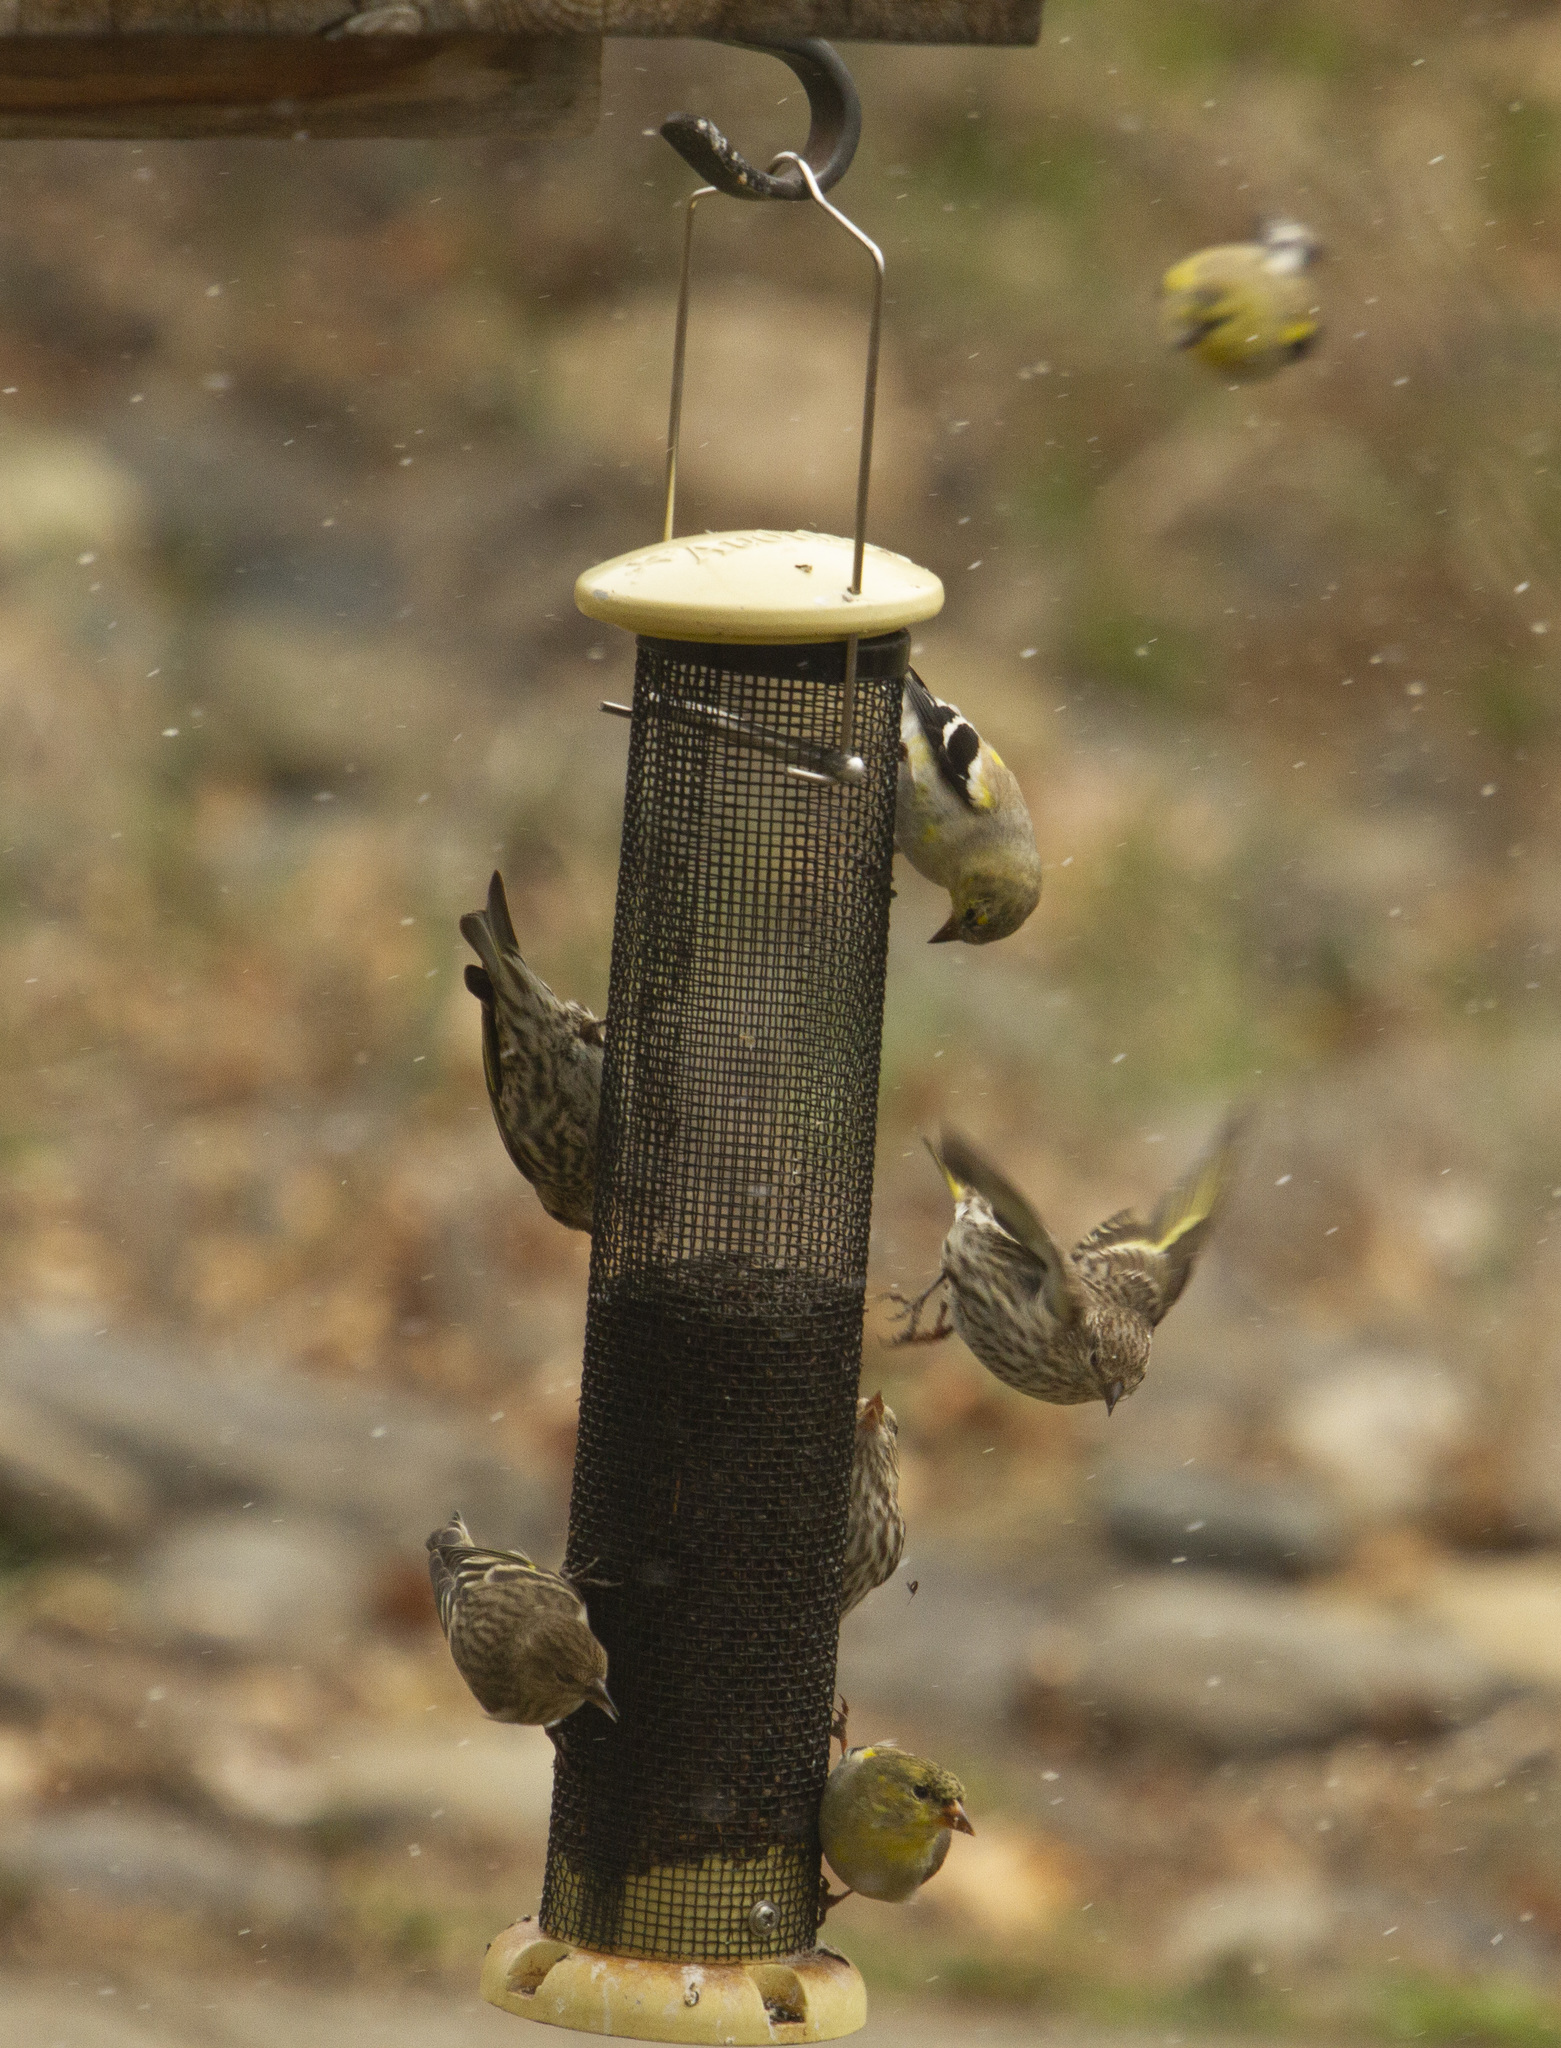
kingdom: Animalia
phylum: Chordata
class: Aves
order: Passeriformes
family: Fringillidae
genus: Spinus
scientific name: Spinus tristis
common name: American goldfinch
